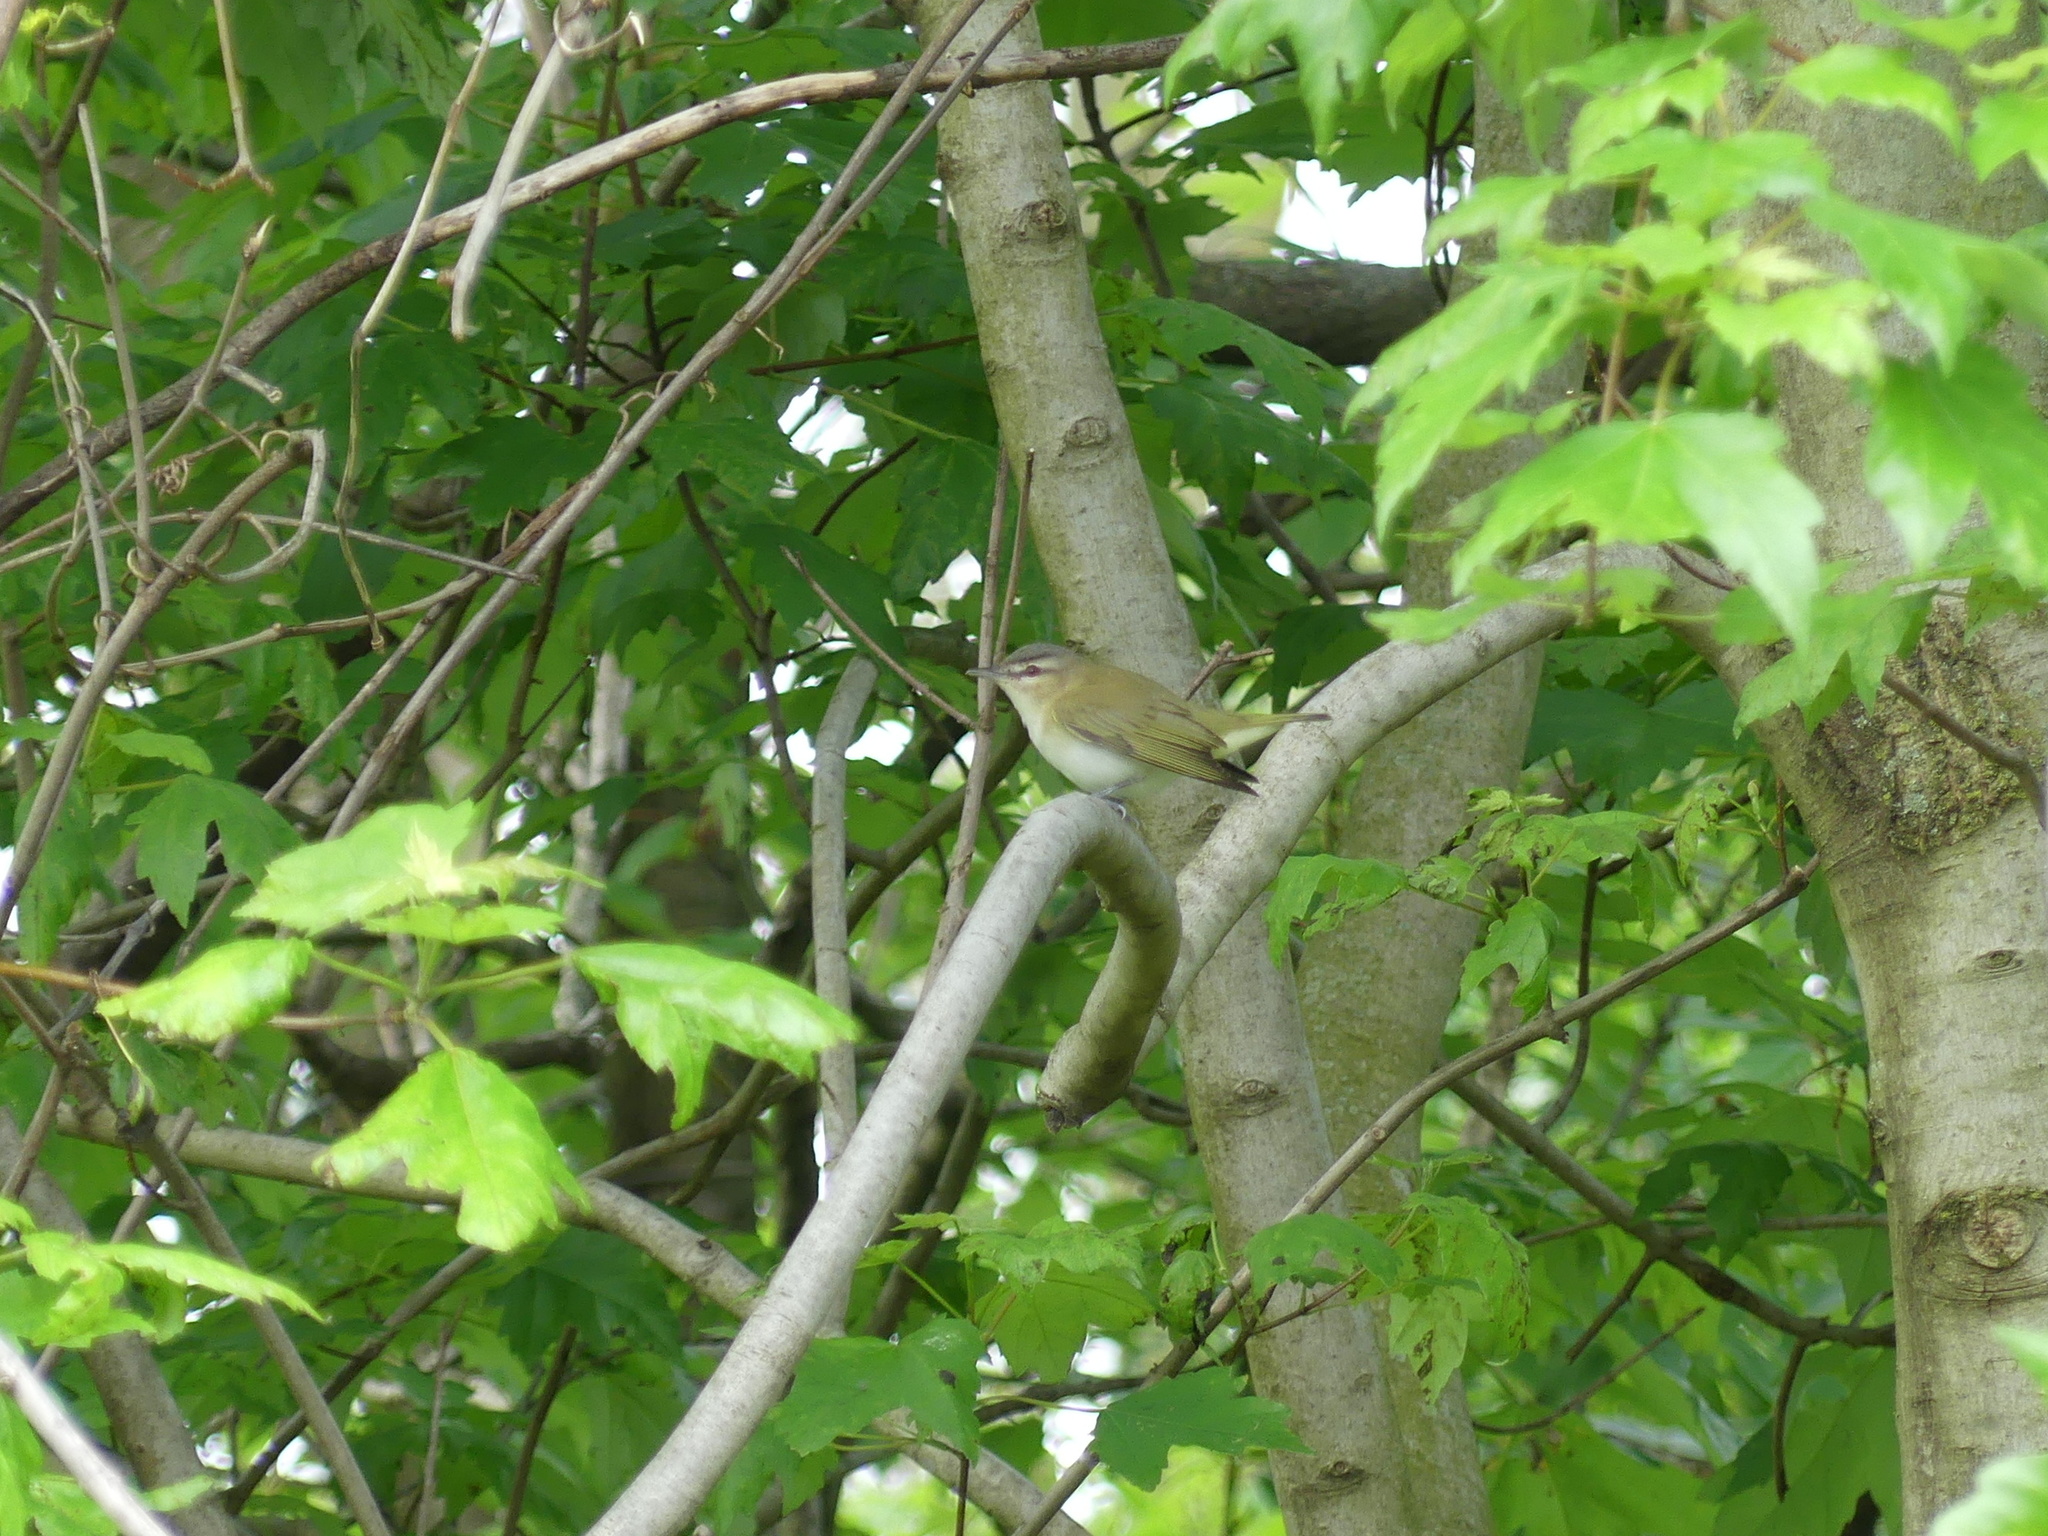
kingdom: Animalia
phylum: Chordata
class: Aves
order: Passeriformes
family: Vireonidae
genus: Vireo
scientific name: Vireo olivaceus
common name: Red-eyed vireo
